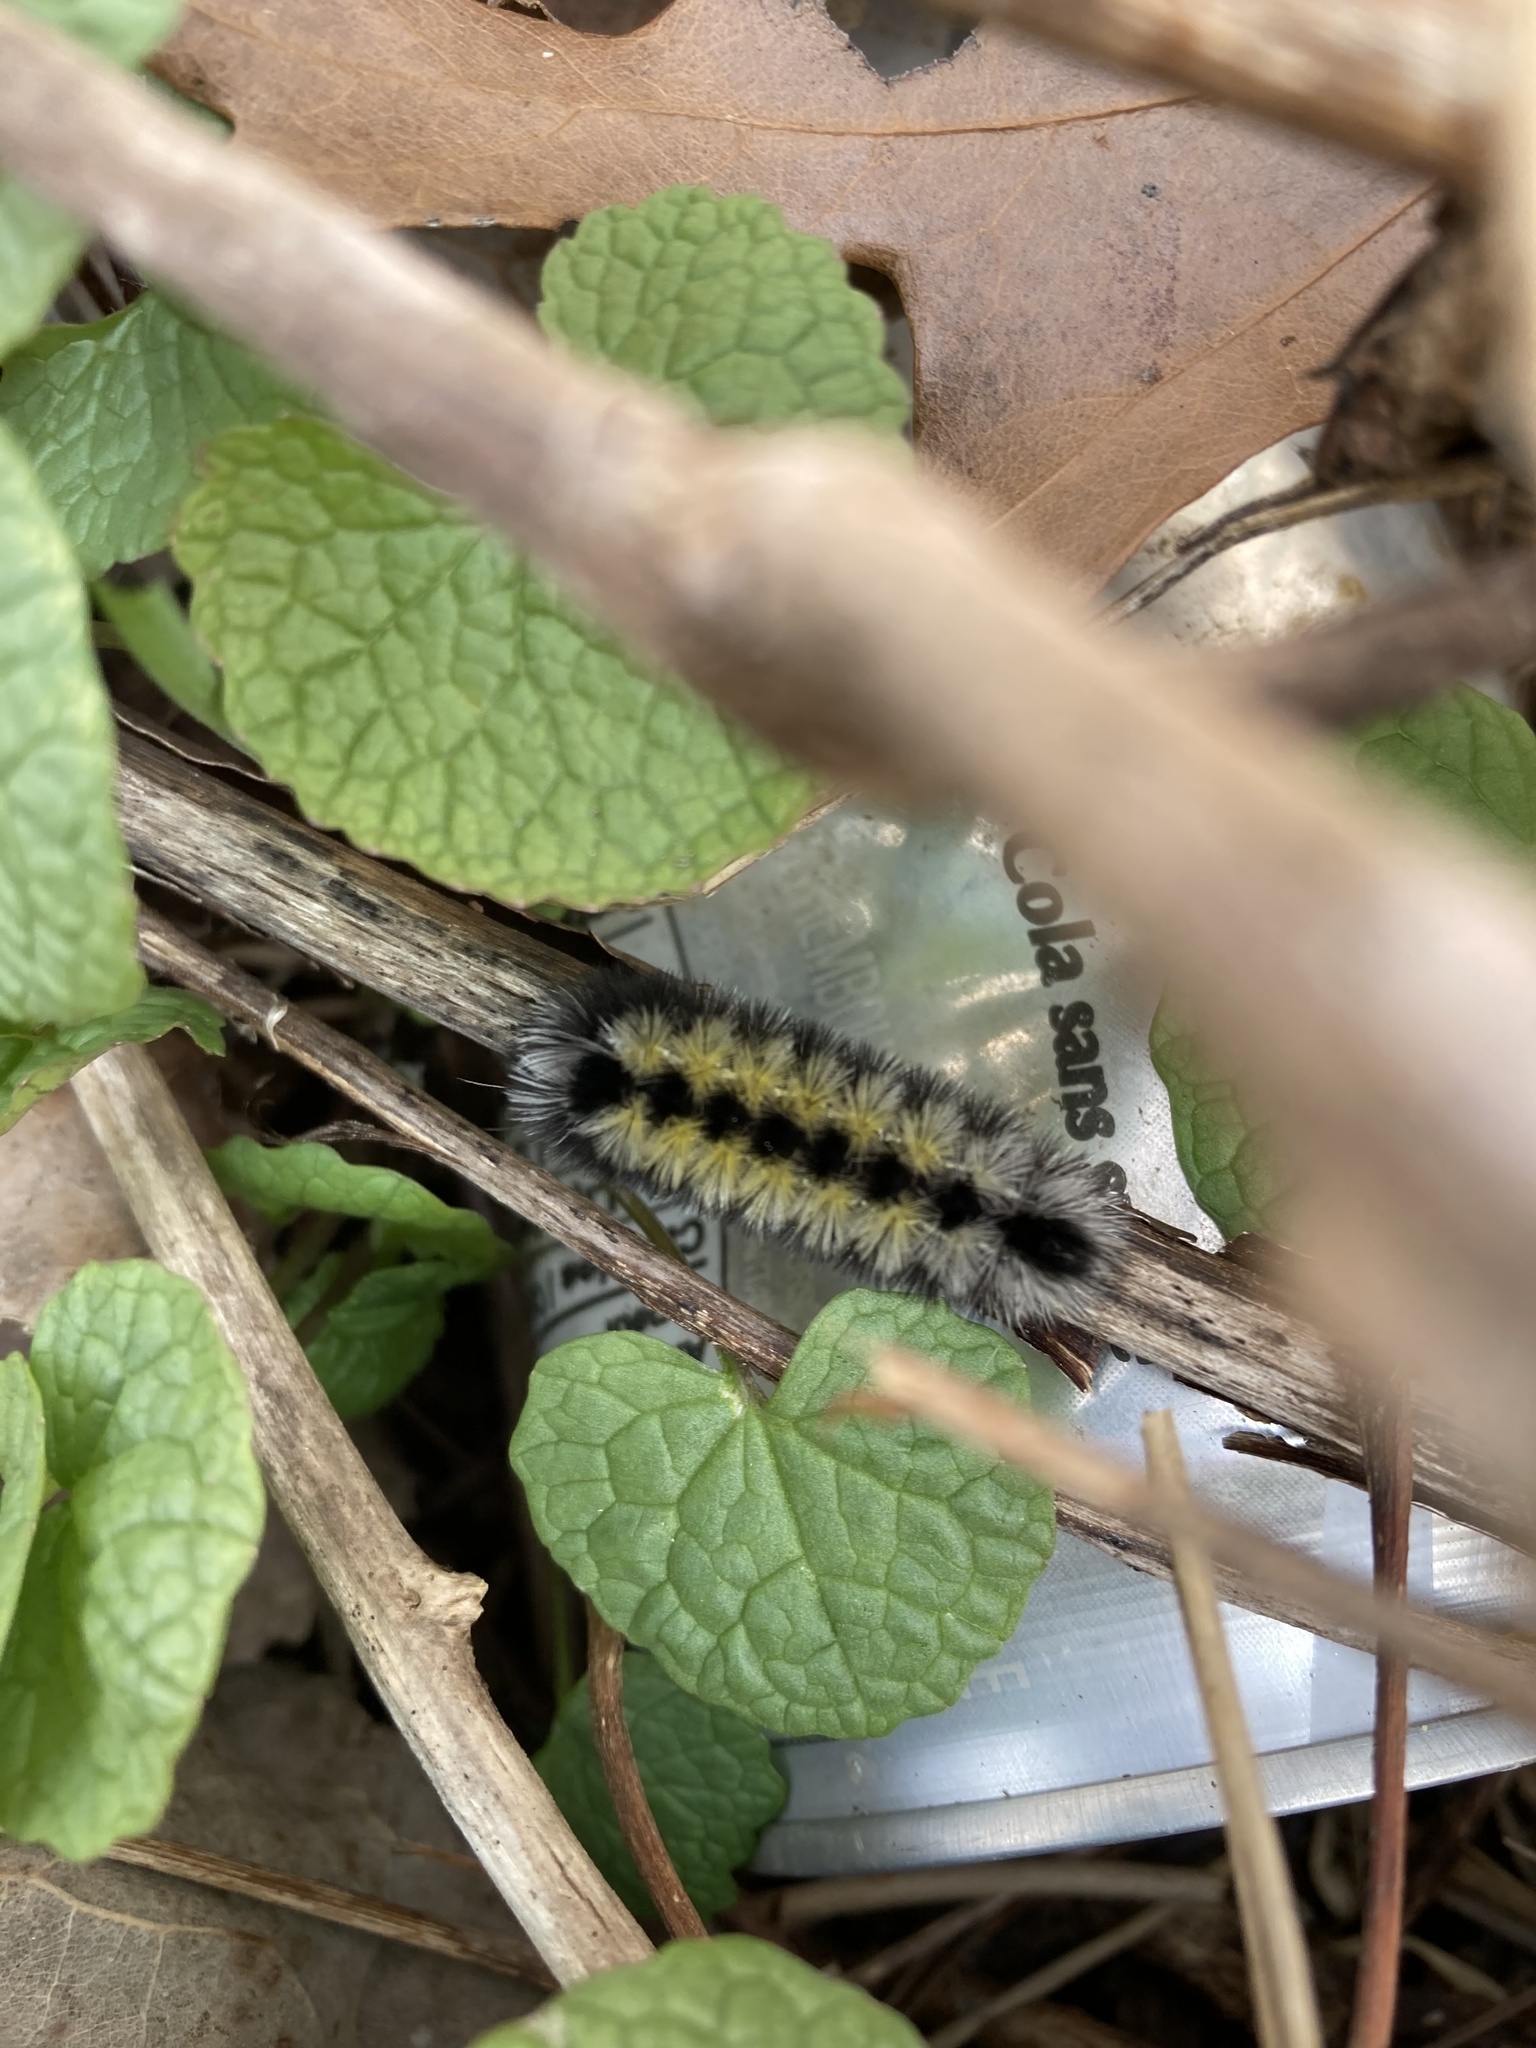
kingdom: Animalia
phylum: Arthropoda
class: Insecta
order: Lepidoptera
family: Erebidae
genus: Ctenucha
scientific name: Ctenucha virginica
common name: Virginia ctenucha moth
